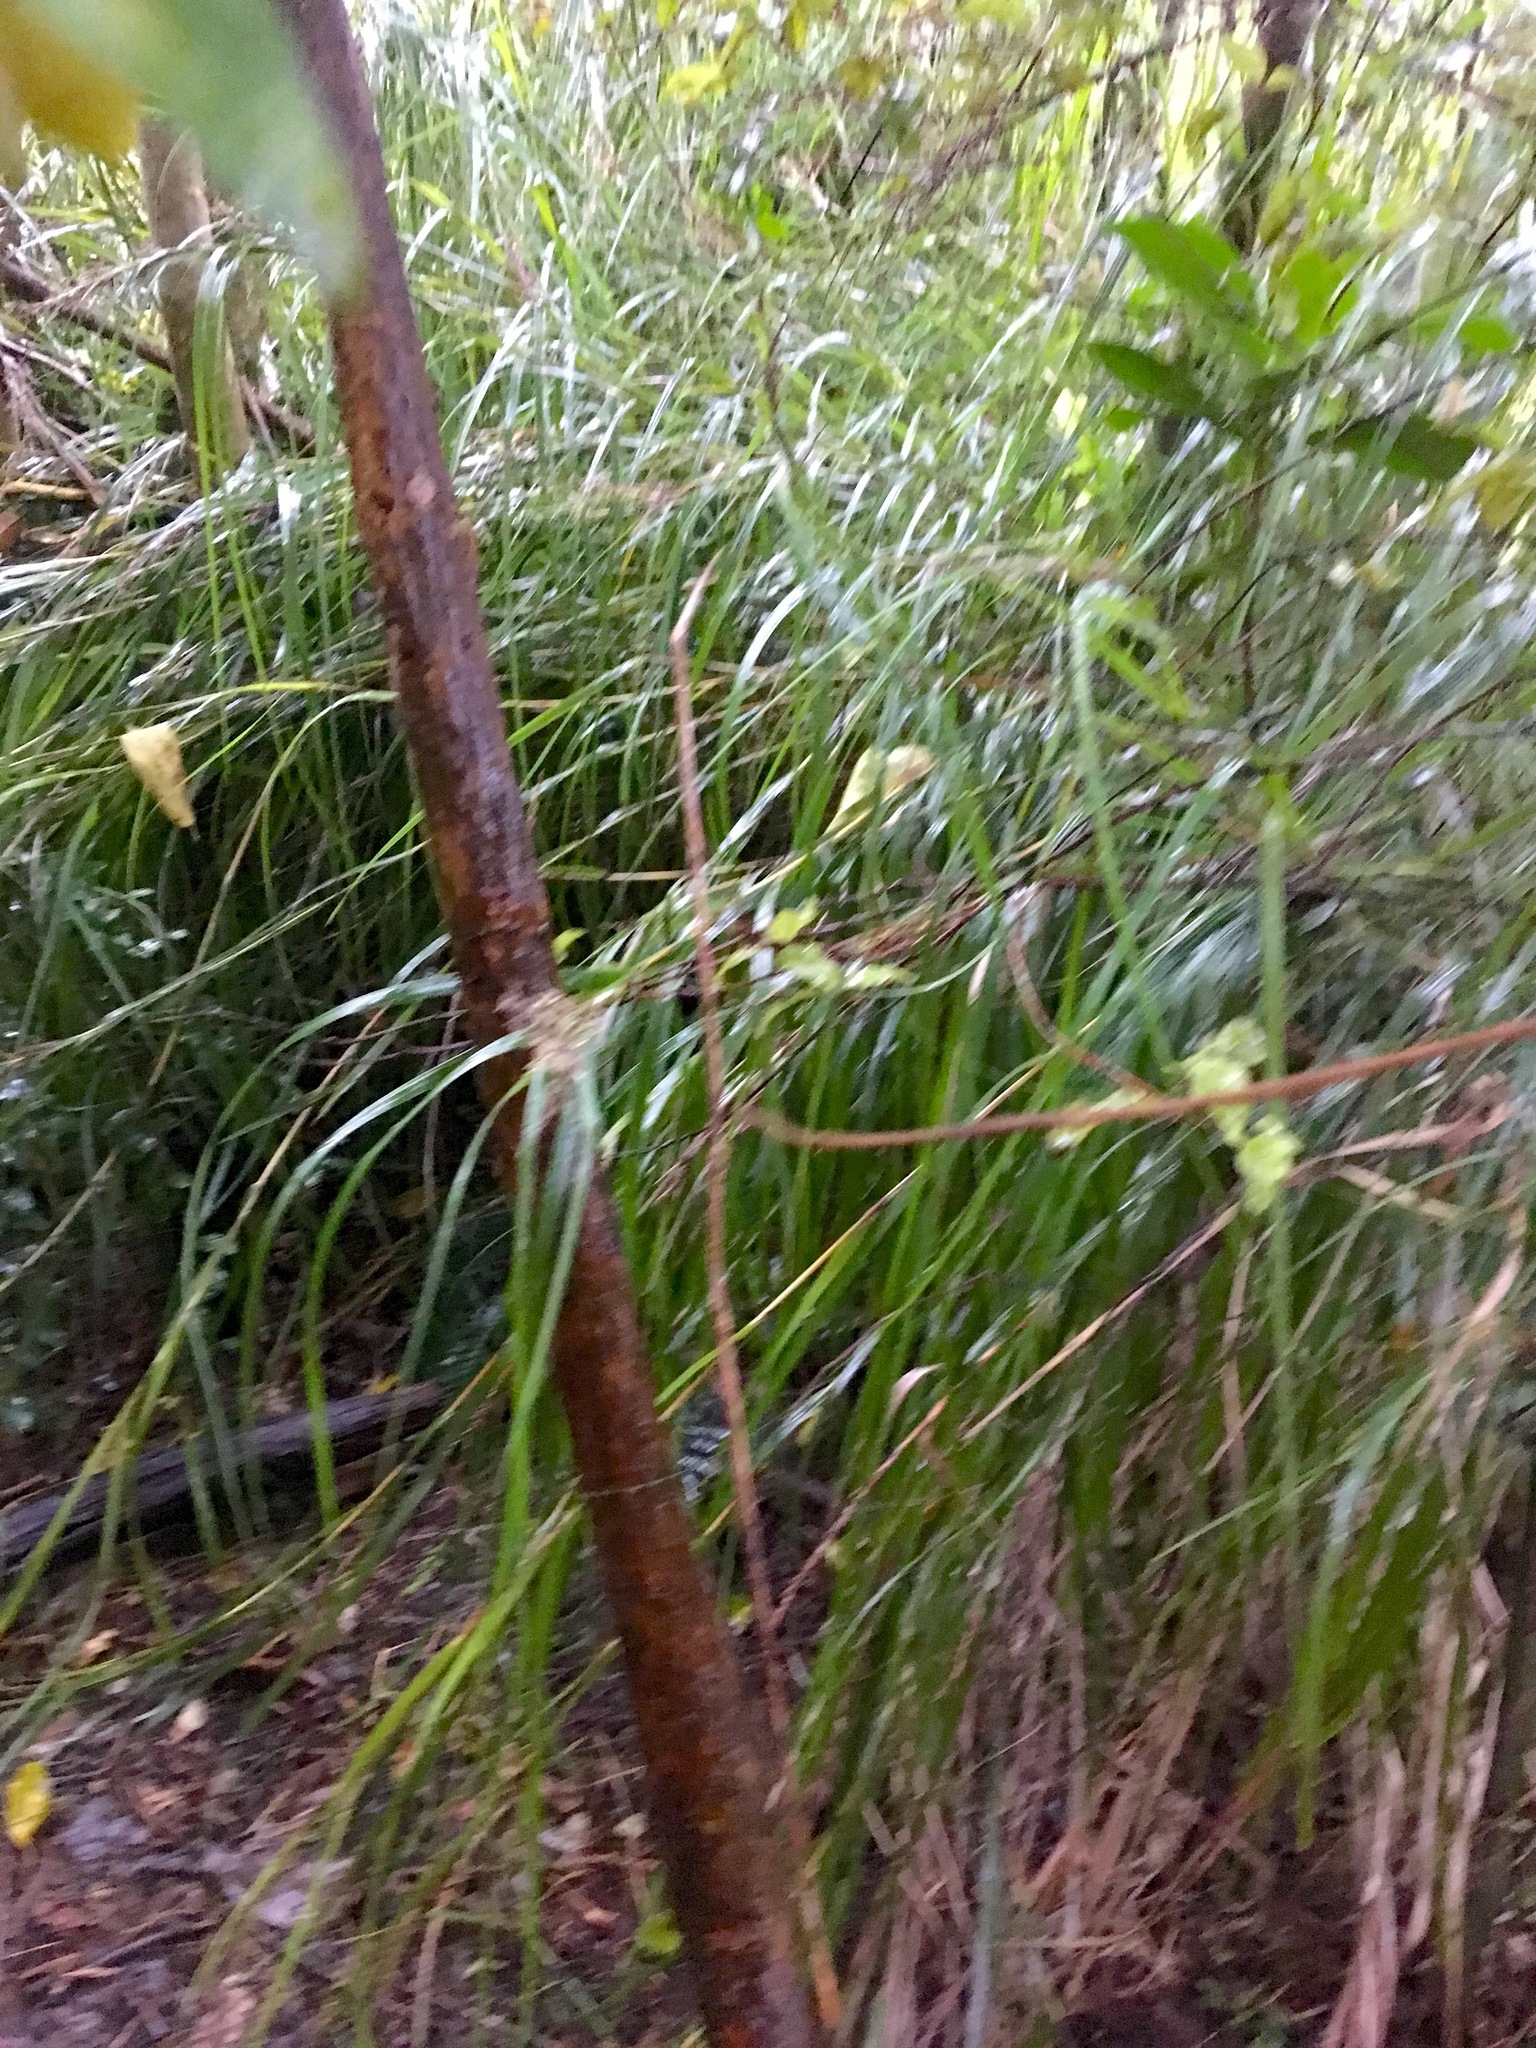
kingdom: Plantae
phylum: Tracheophyta
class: Liliopsida
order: Poales
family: Cyperaceae
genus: Gahnia
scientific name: Gahnia lacera
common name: Sawsedge
